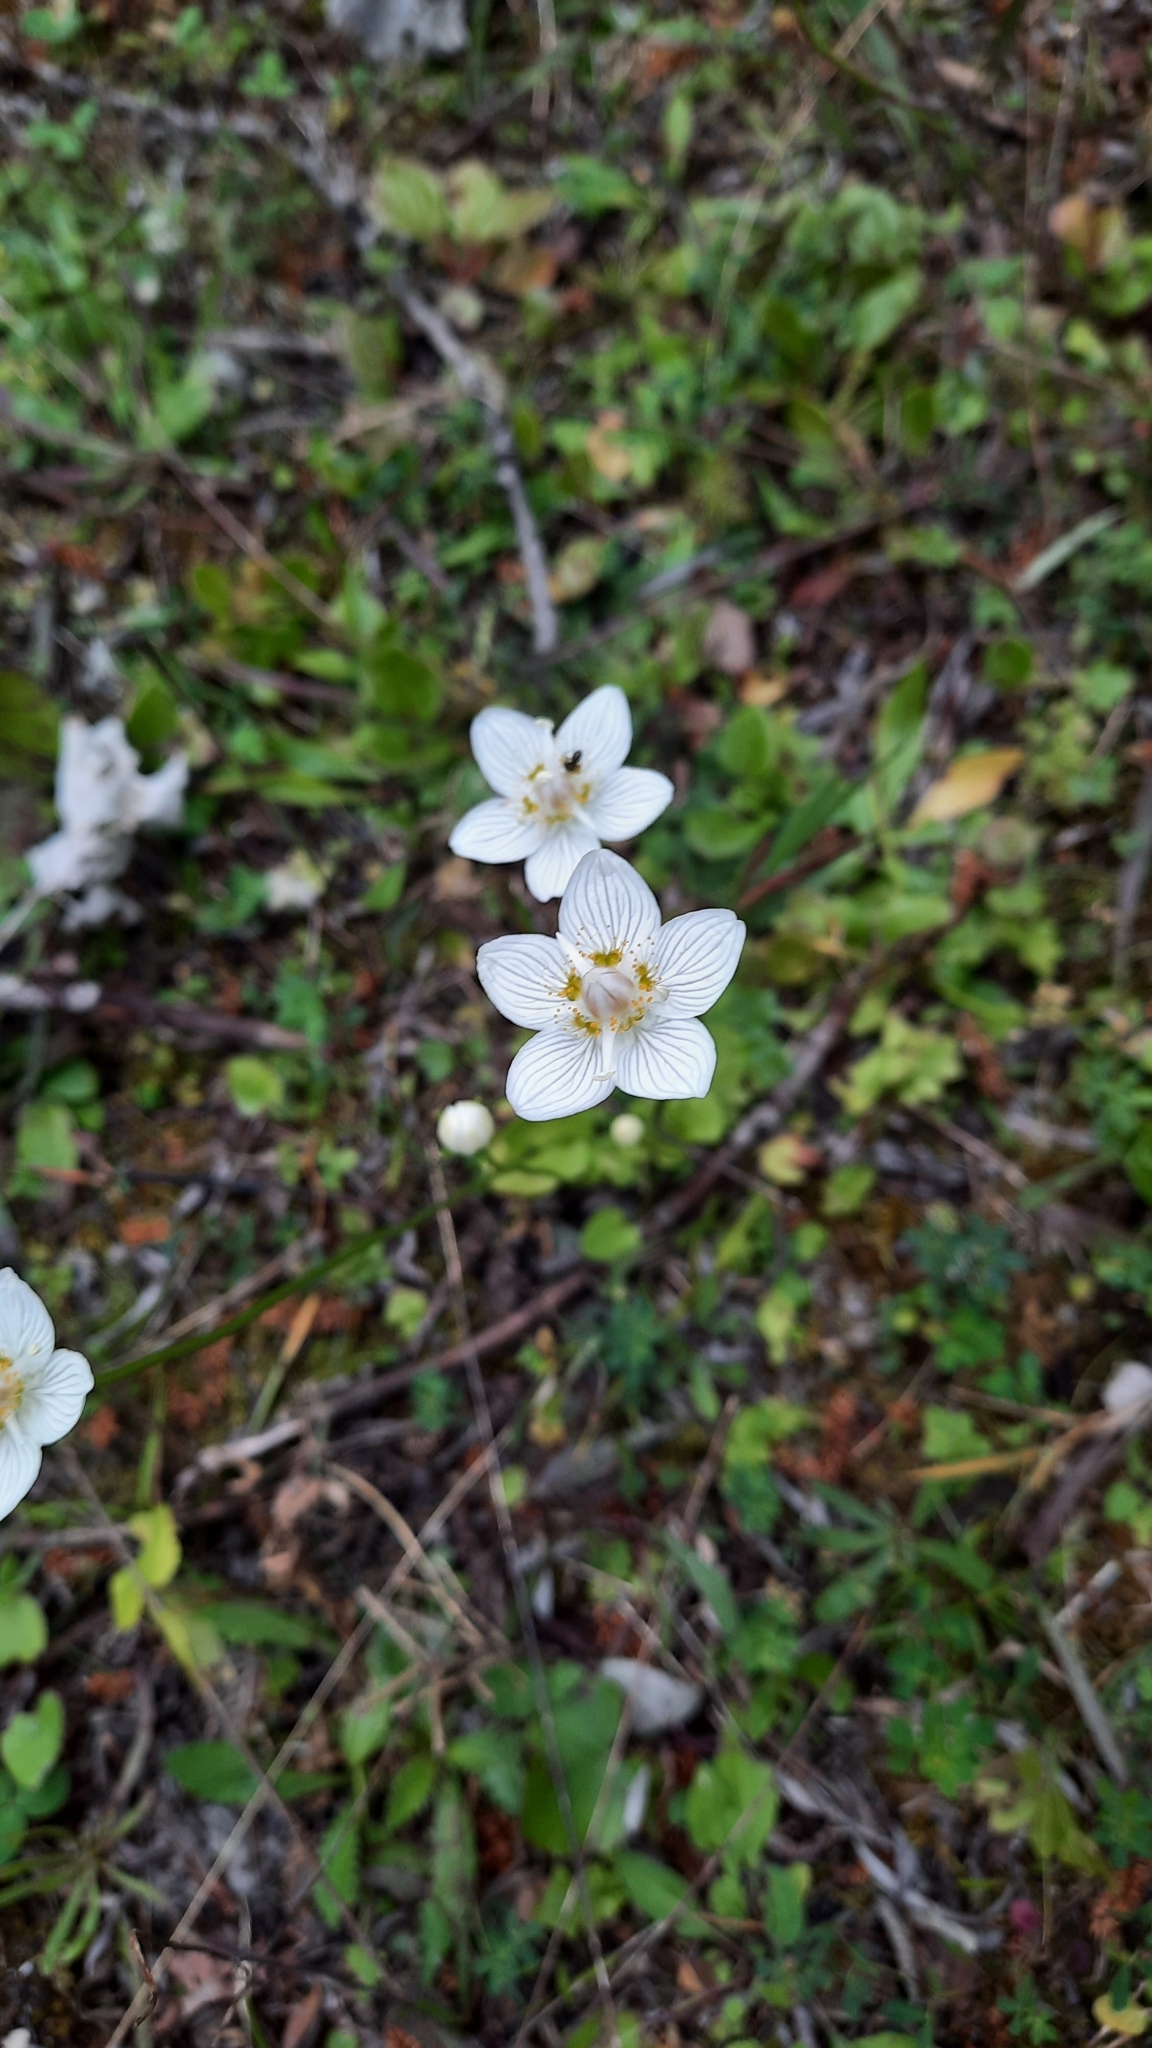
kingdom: Plantae
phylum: Tracheophyta
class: Magnoliopsida
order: Celastrales
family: Parnassiaceae
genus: Parnassia
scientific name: Parnassia palustris
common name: Grass-of-parnassus
